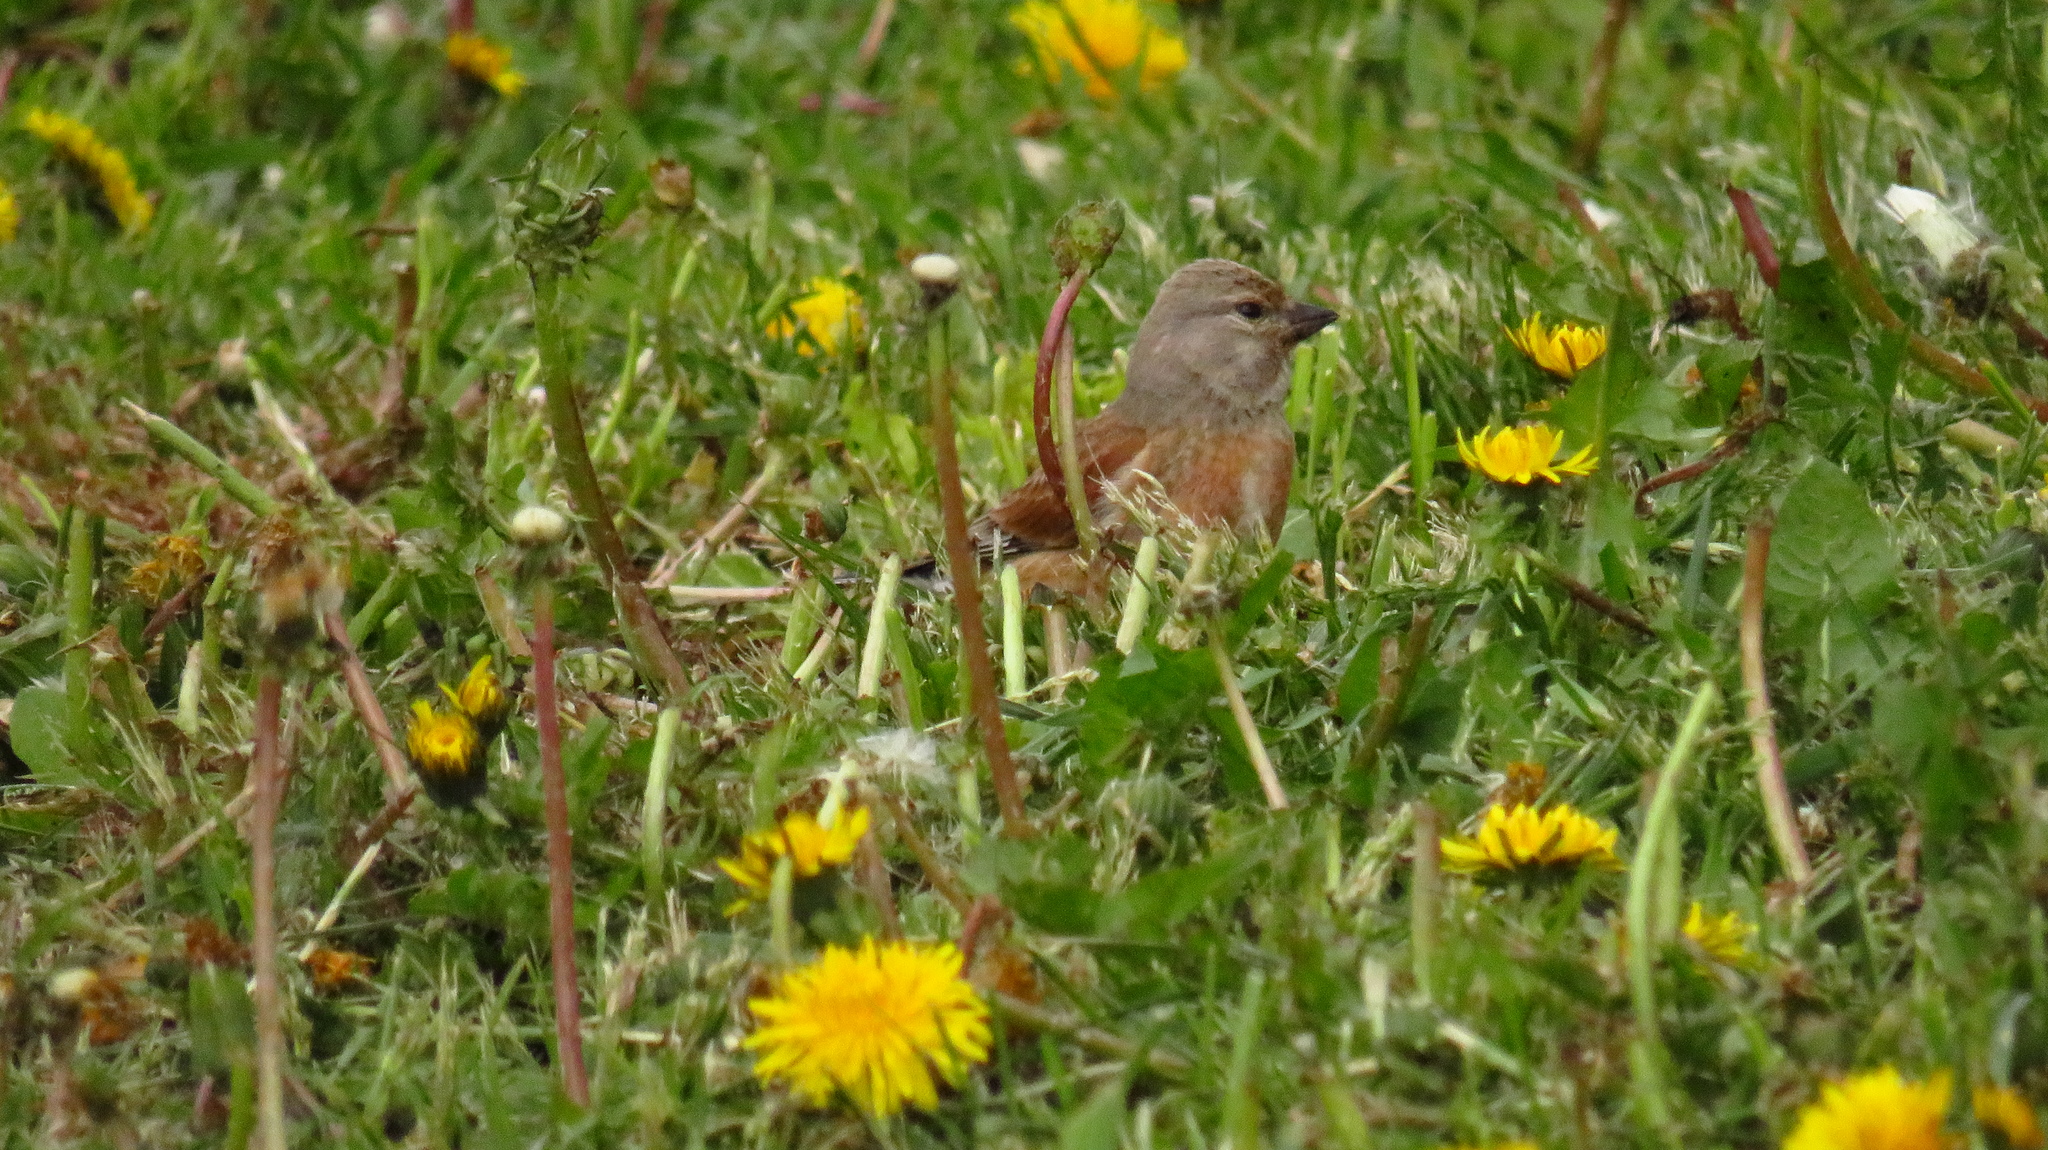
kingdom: Animalia
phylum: Chordata
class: Aves
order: Passeriformes
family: Fringillidae
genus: Linaria
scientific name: Linaria cannabina
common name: Common linnet
